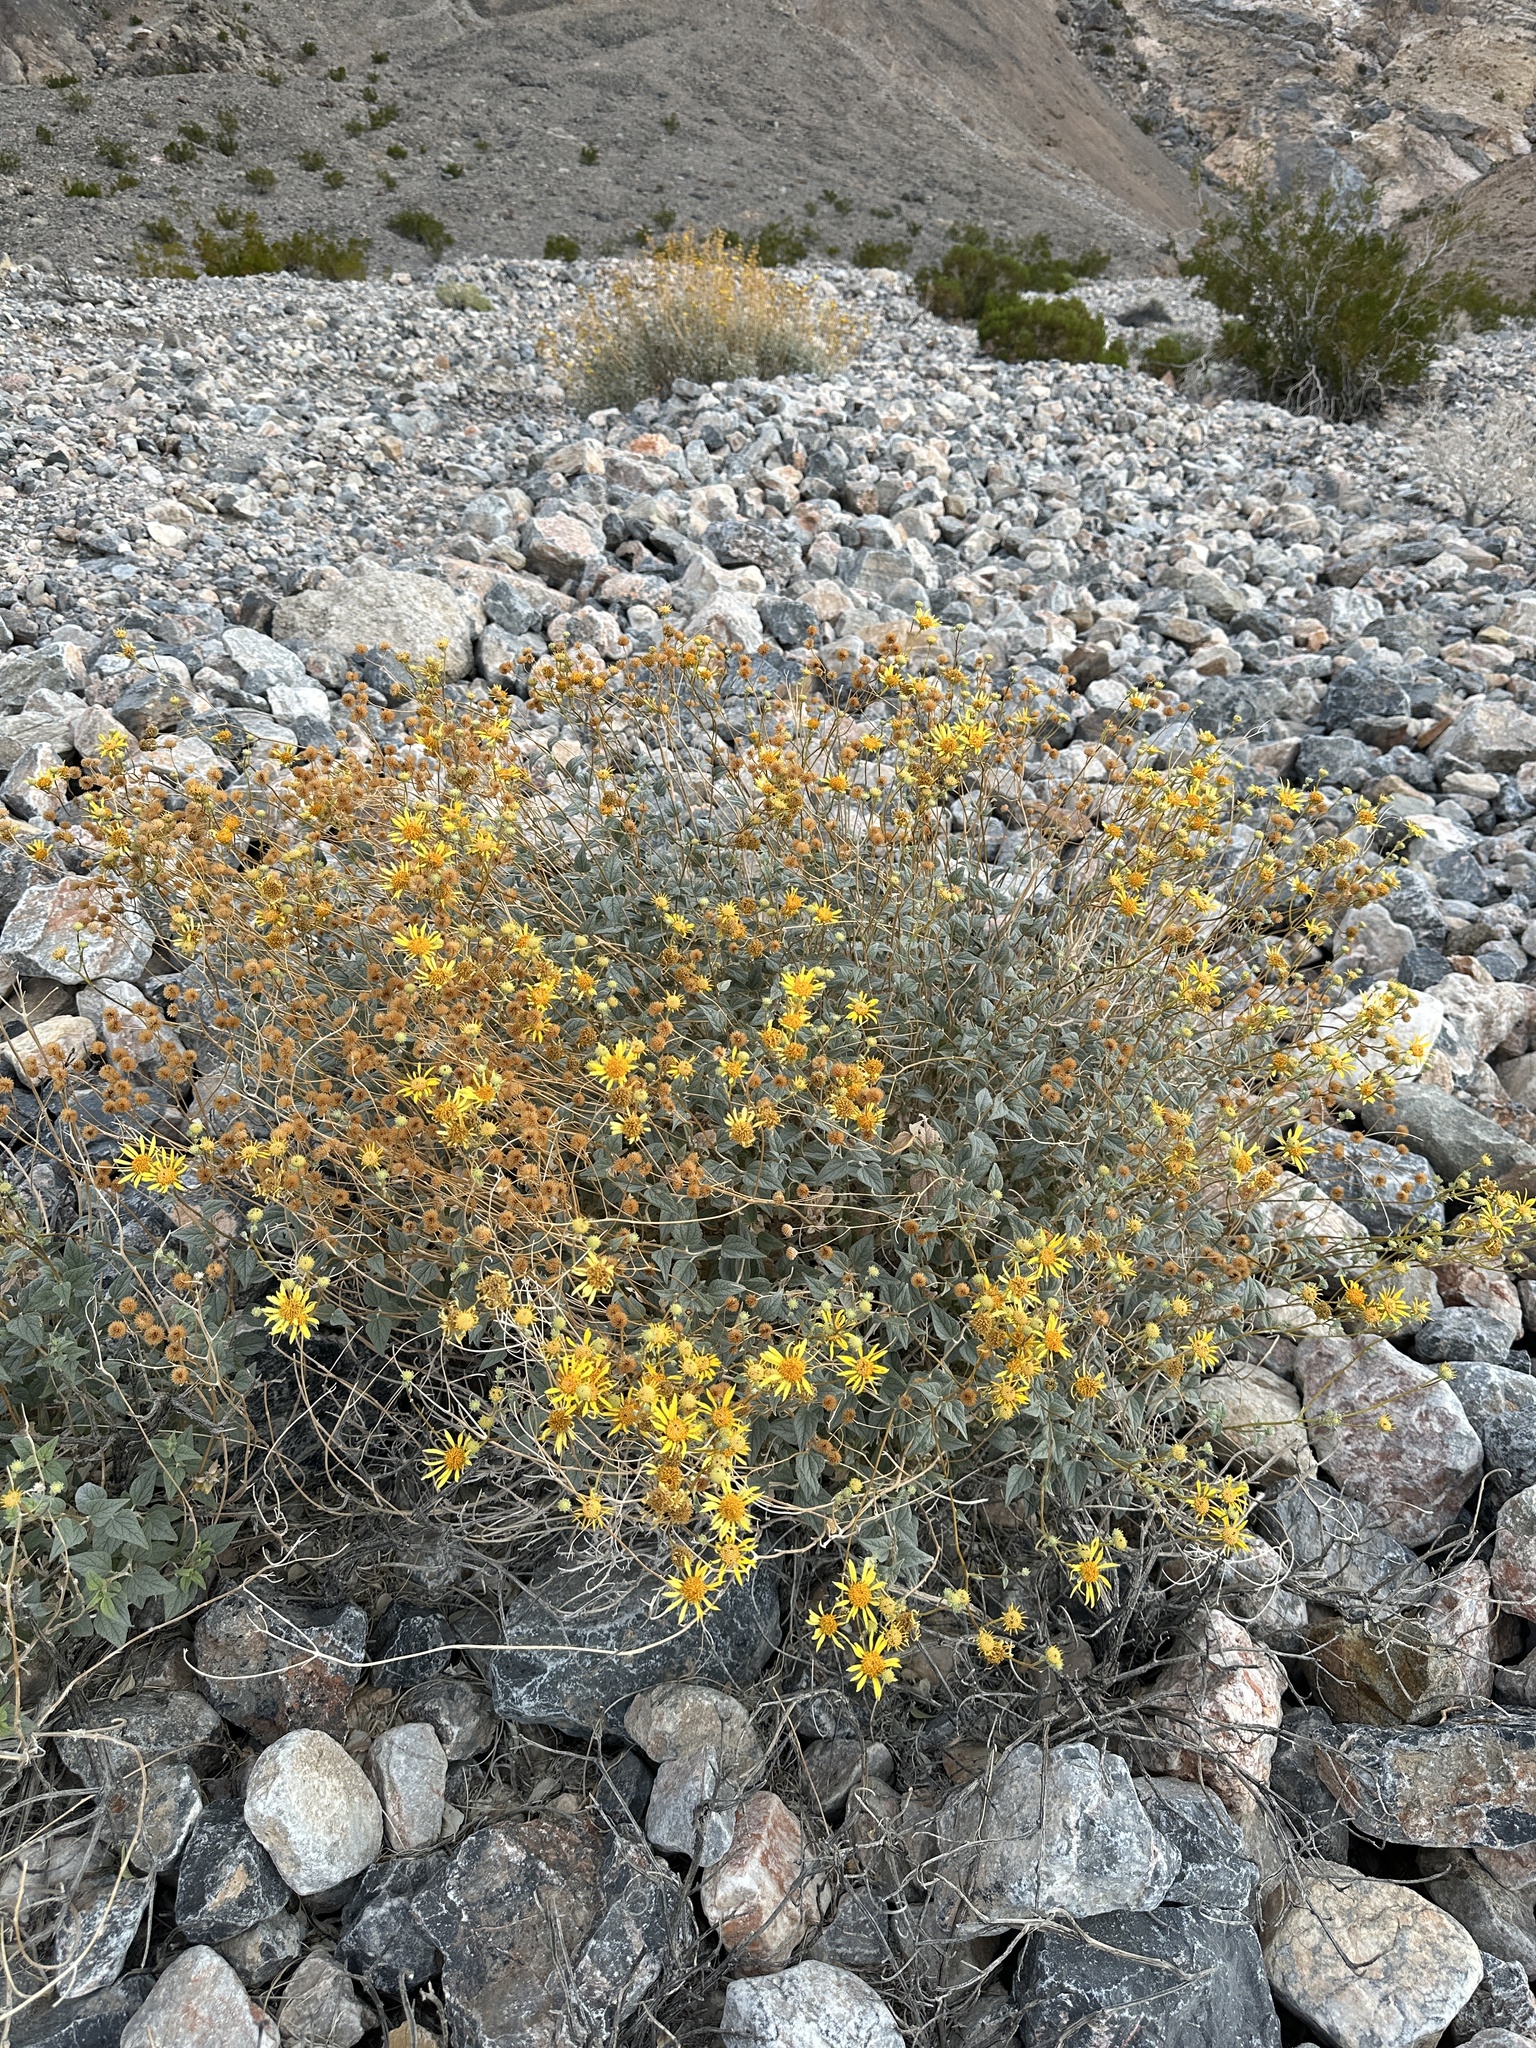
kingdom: Plantae
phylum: Tracheophyta
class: Magnoliopsida
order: Asterales
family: Asteraceae
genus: Bahiopsis
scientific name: Bahiopsis reticulata
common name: Death valley goldeneye
